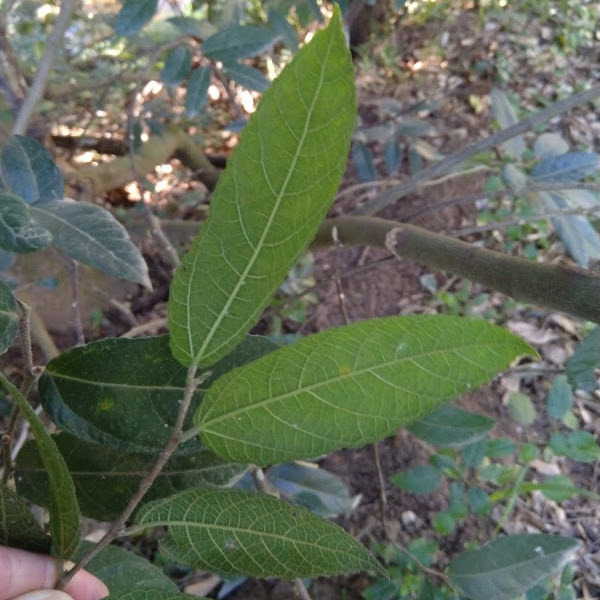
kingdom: Plantae
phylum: Tracheophyta
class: Magnoliopsida
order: Rosales
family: Moraceae
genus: Ficus
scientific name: Ficus coronata
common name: Creek sandpaper fig
